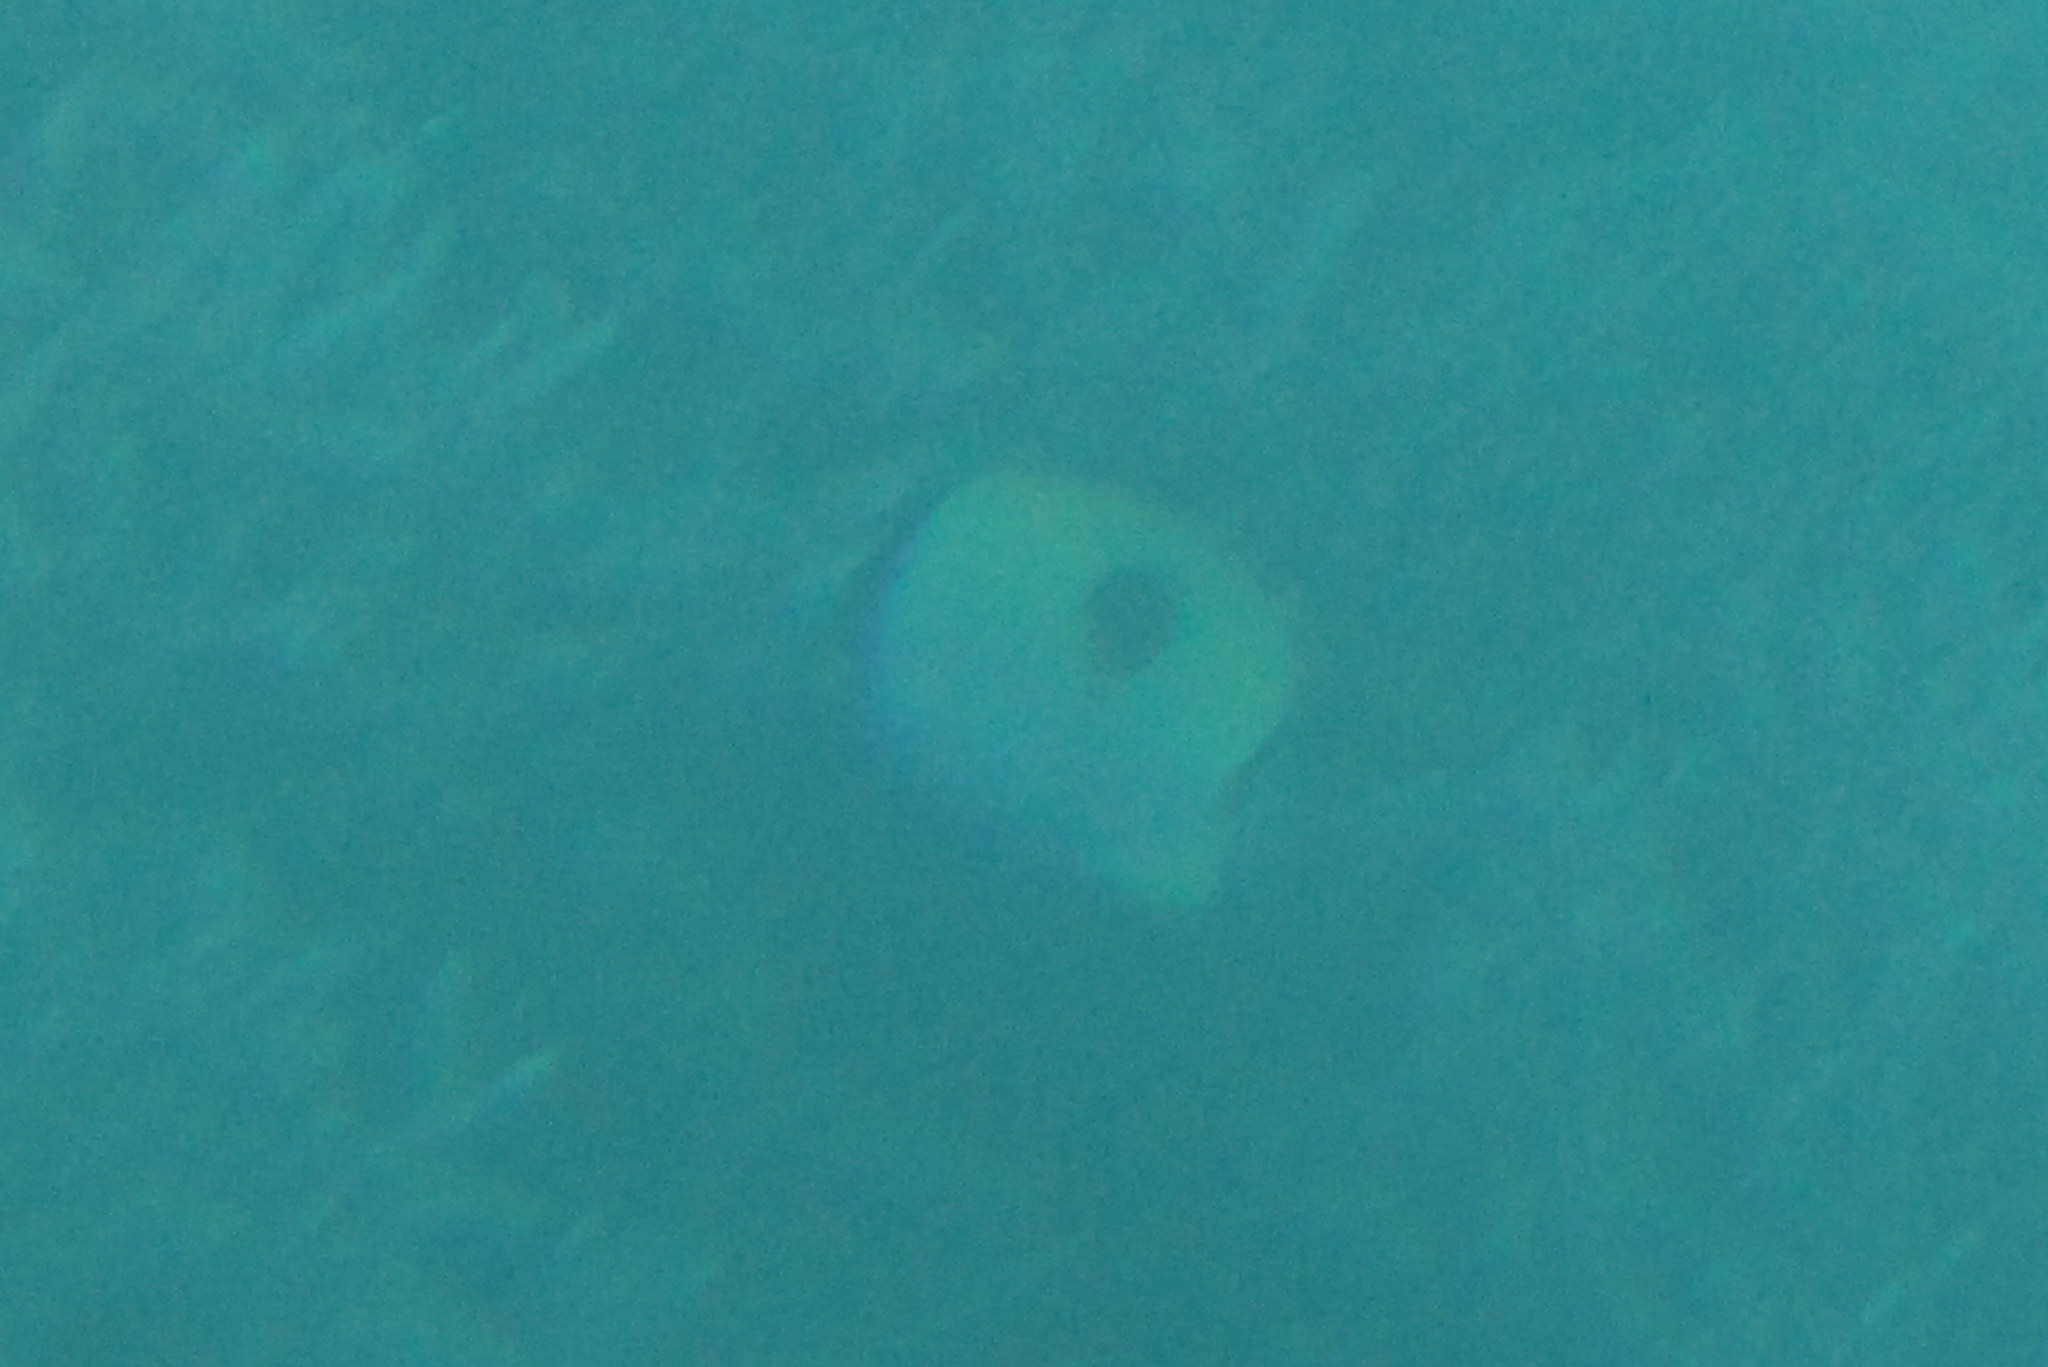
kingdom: Animalia
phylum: Chordata
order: Perciformes
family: Chaetodontidae
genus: Chaetodon
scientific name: Chaetodon unimaculatus
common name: Teardrop butterflyfish
